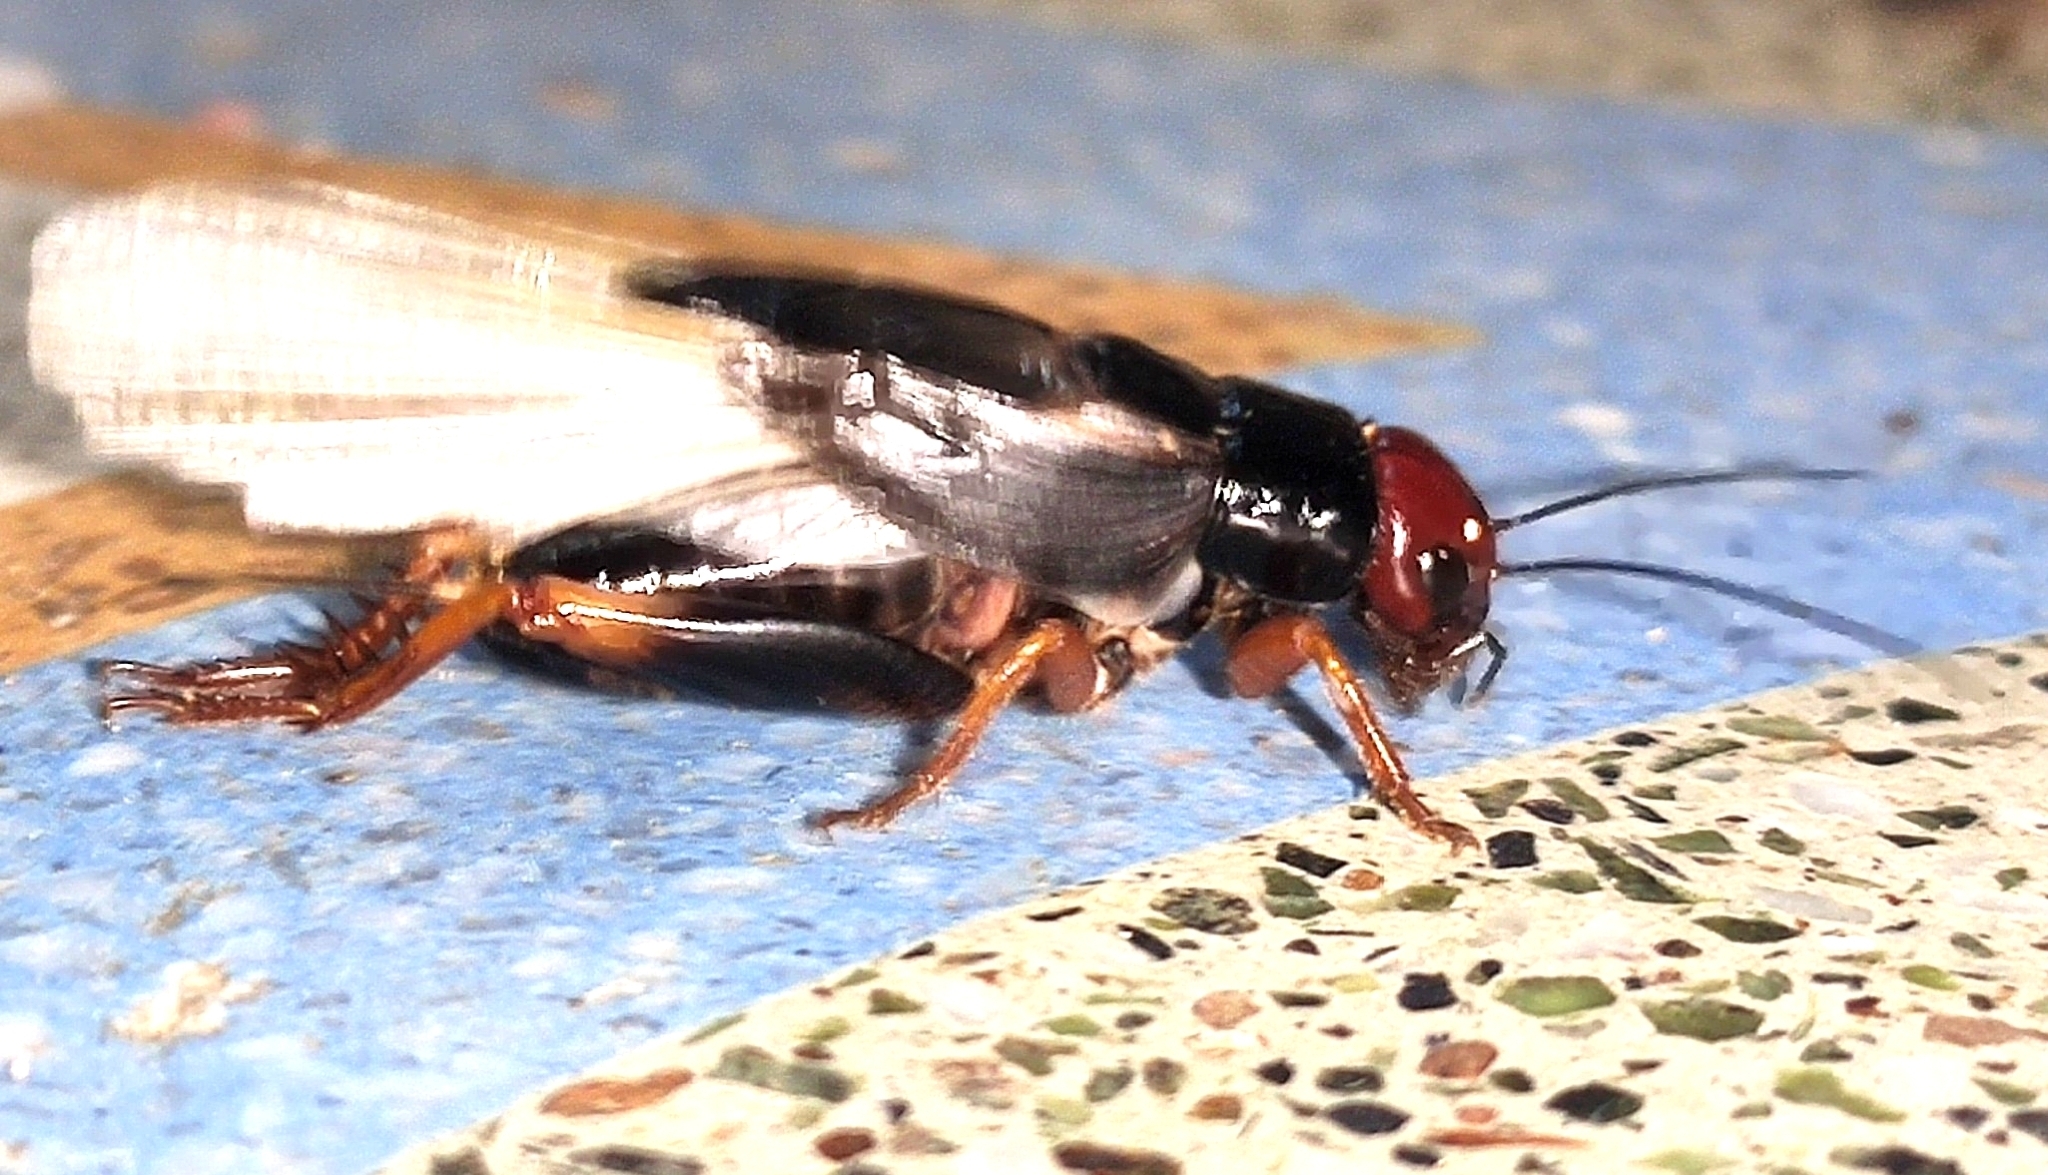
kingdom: Animalia
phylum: Arthropoda
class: Insecta
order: Orthoptera
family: Gryllidae
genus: Phonarellus
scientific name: Phonarellus minor
